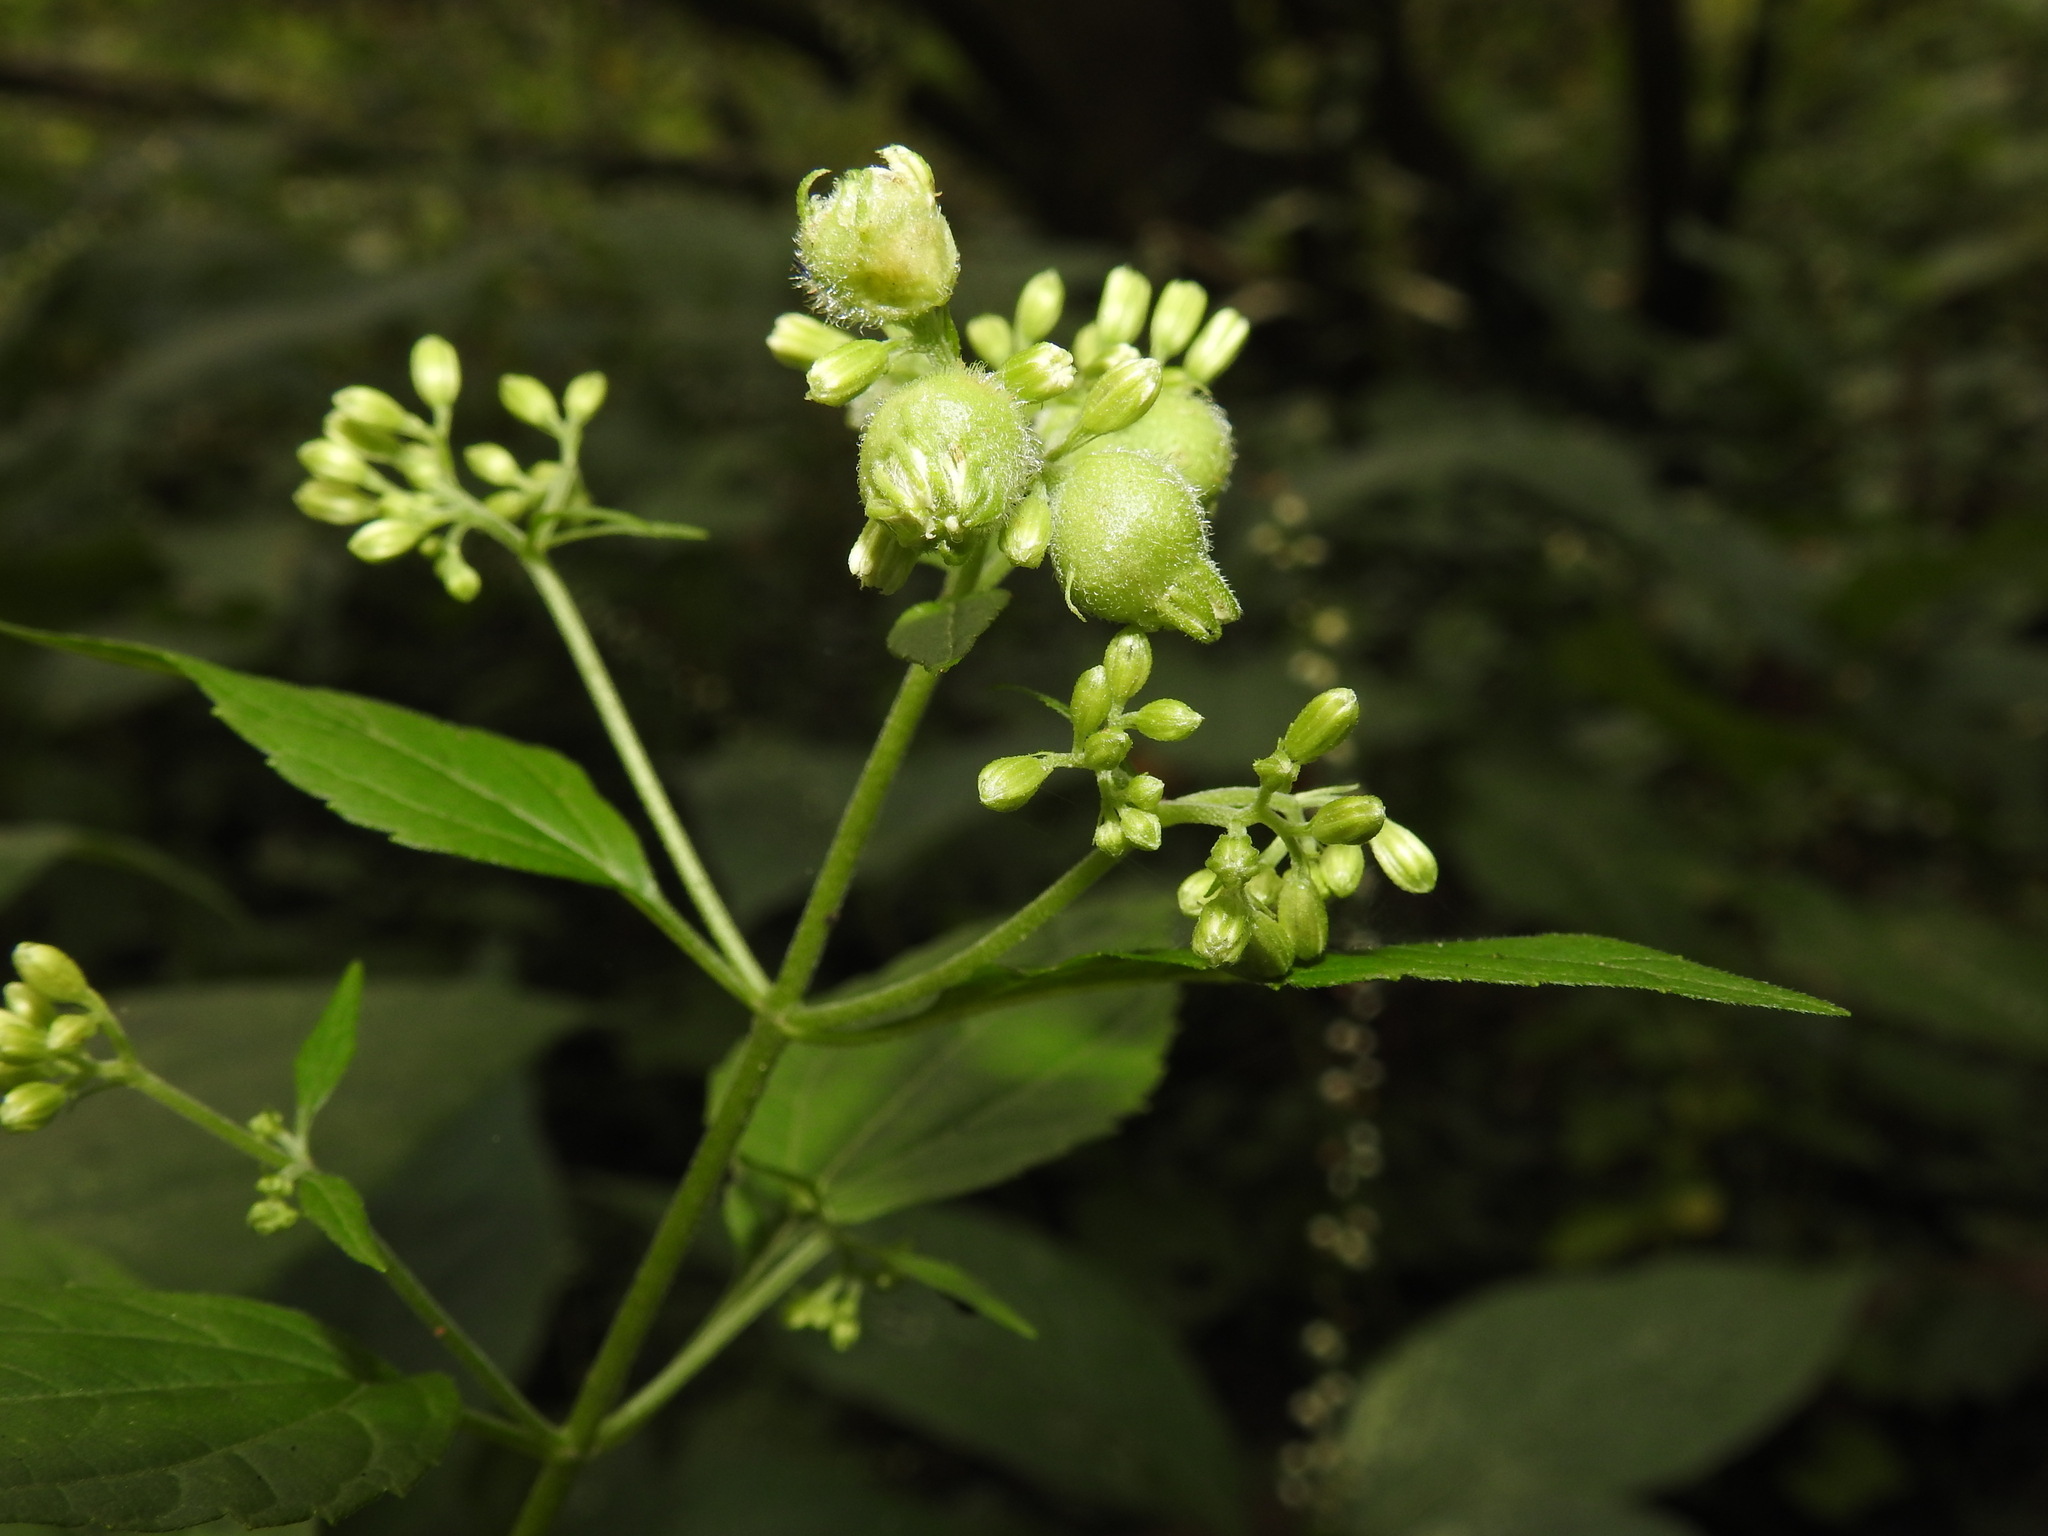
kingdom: Animalia
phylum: Arthropoda
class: Insecta
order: Diptera
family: Cecidomyiidae
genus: Schizomyia
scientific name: Schizomyia eupatoriflorae
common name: Boneset flower gall midge
